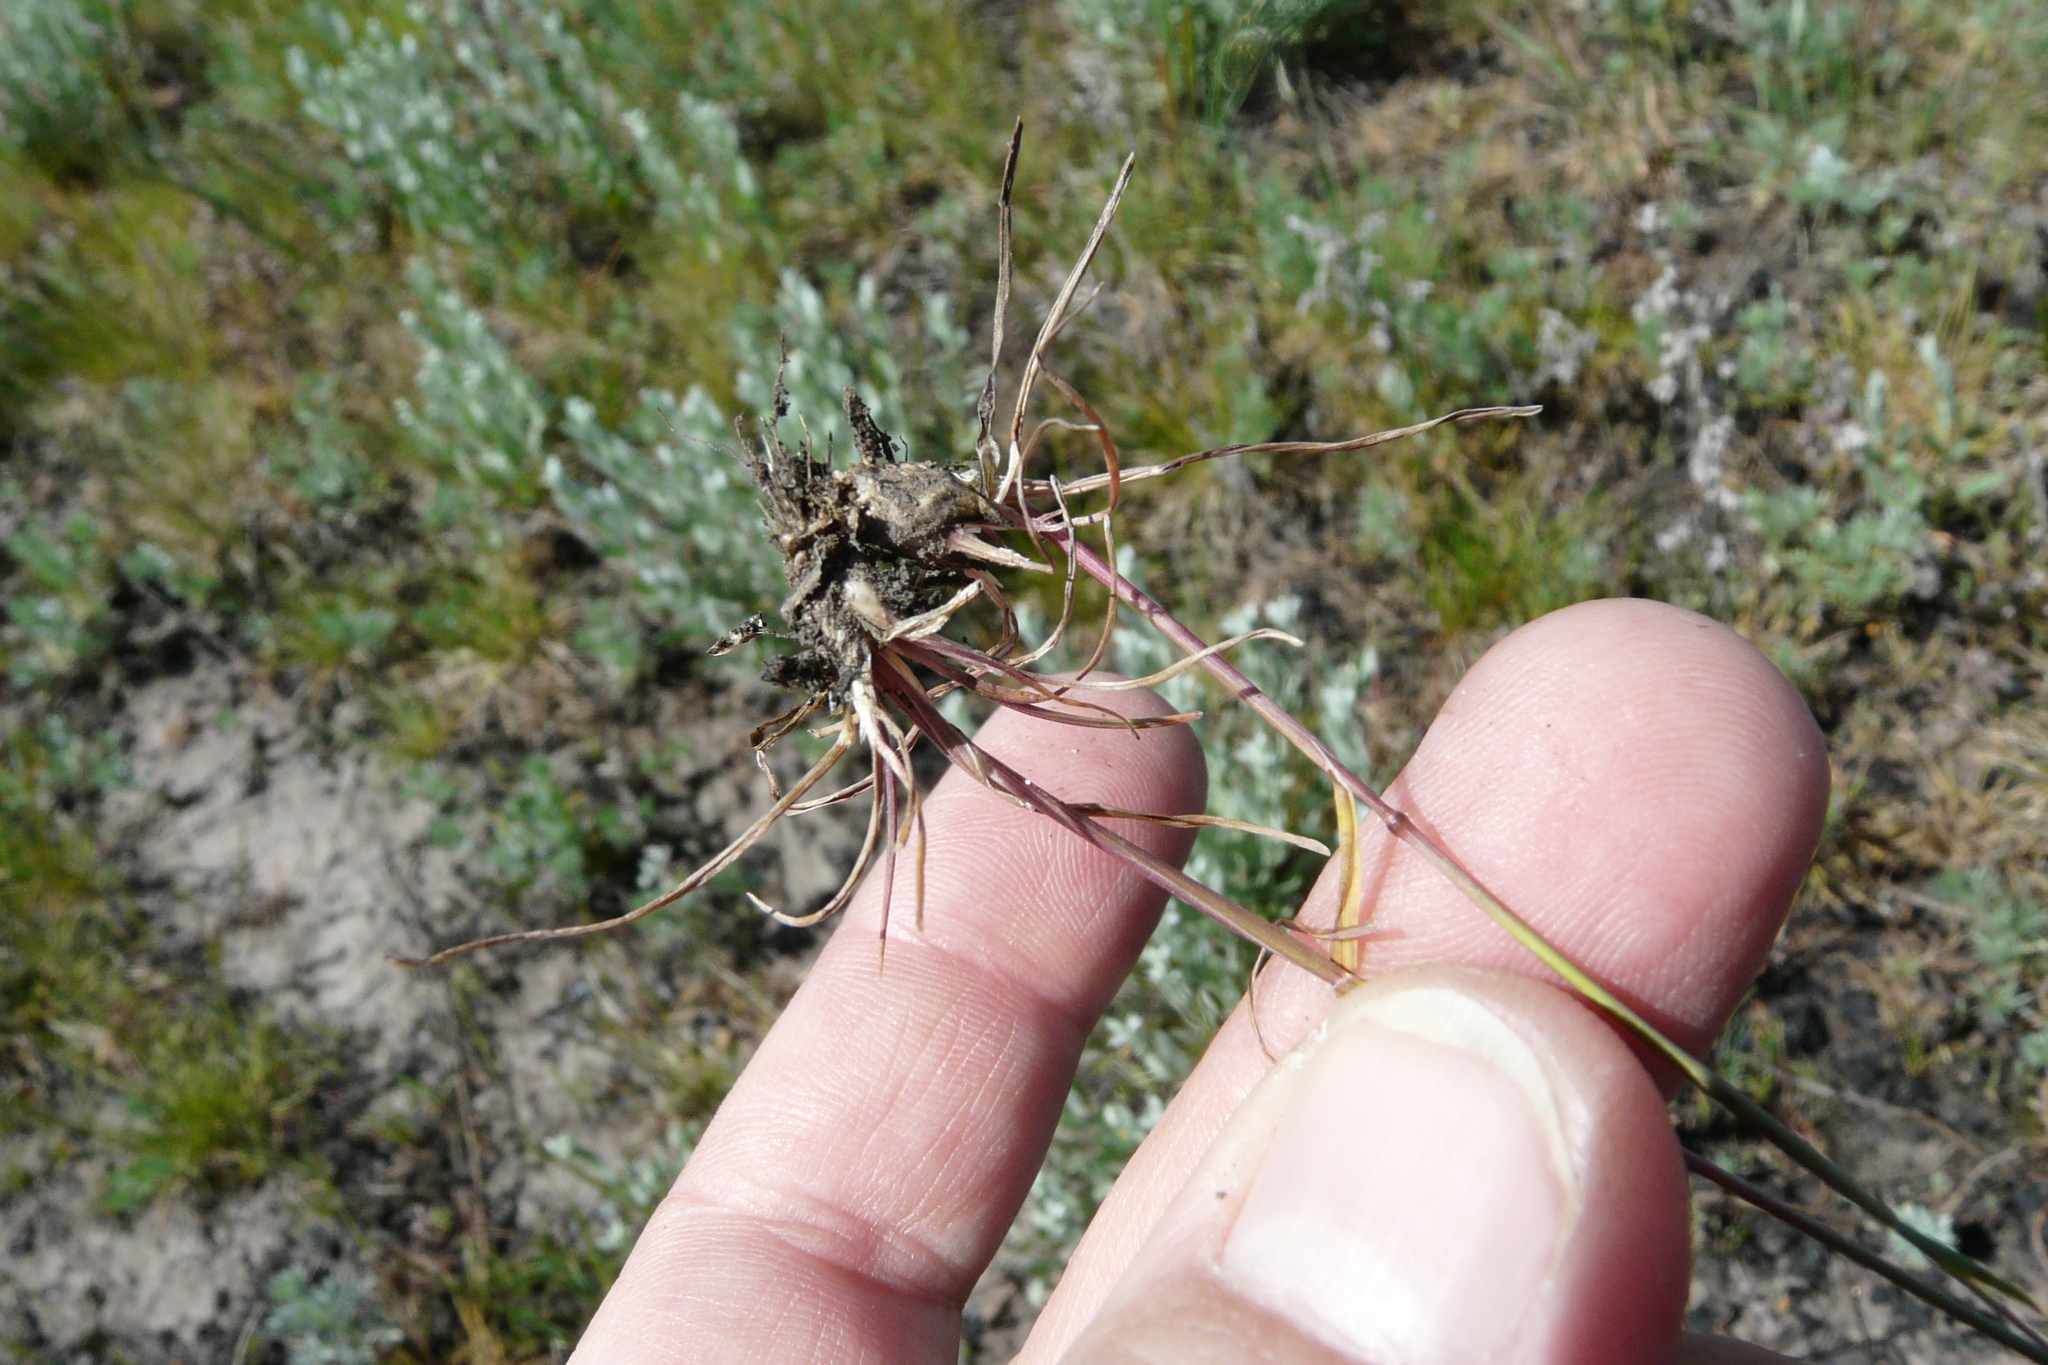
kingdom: Plantae
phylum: Tracheophyta
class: Liliopsida
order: Poales
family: Poaceae
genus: Poa
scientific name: Poa bulbosa
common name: Bulbous bluegrass
